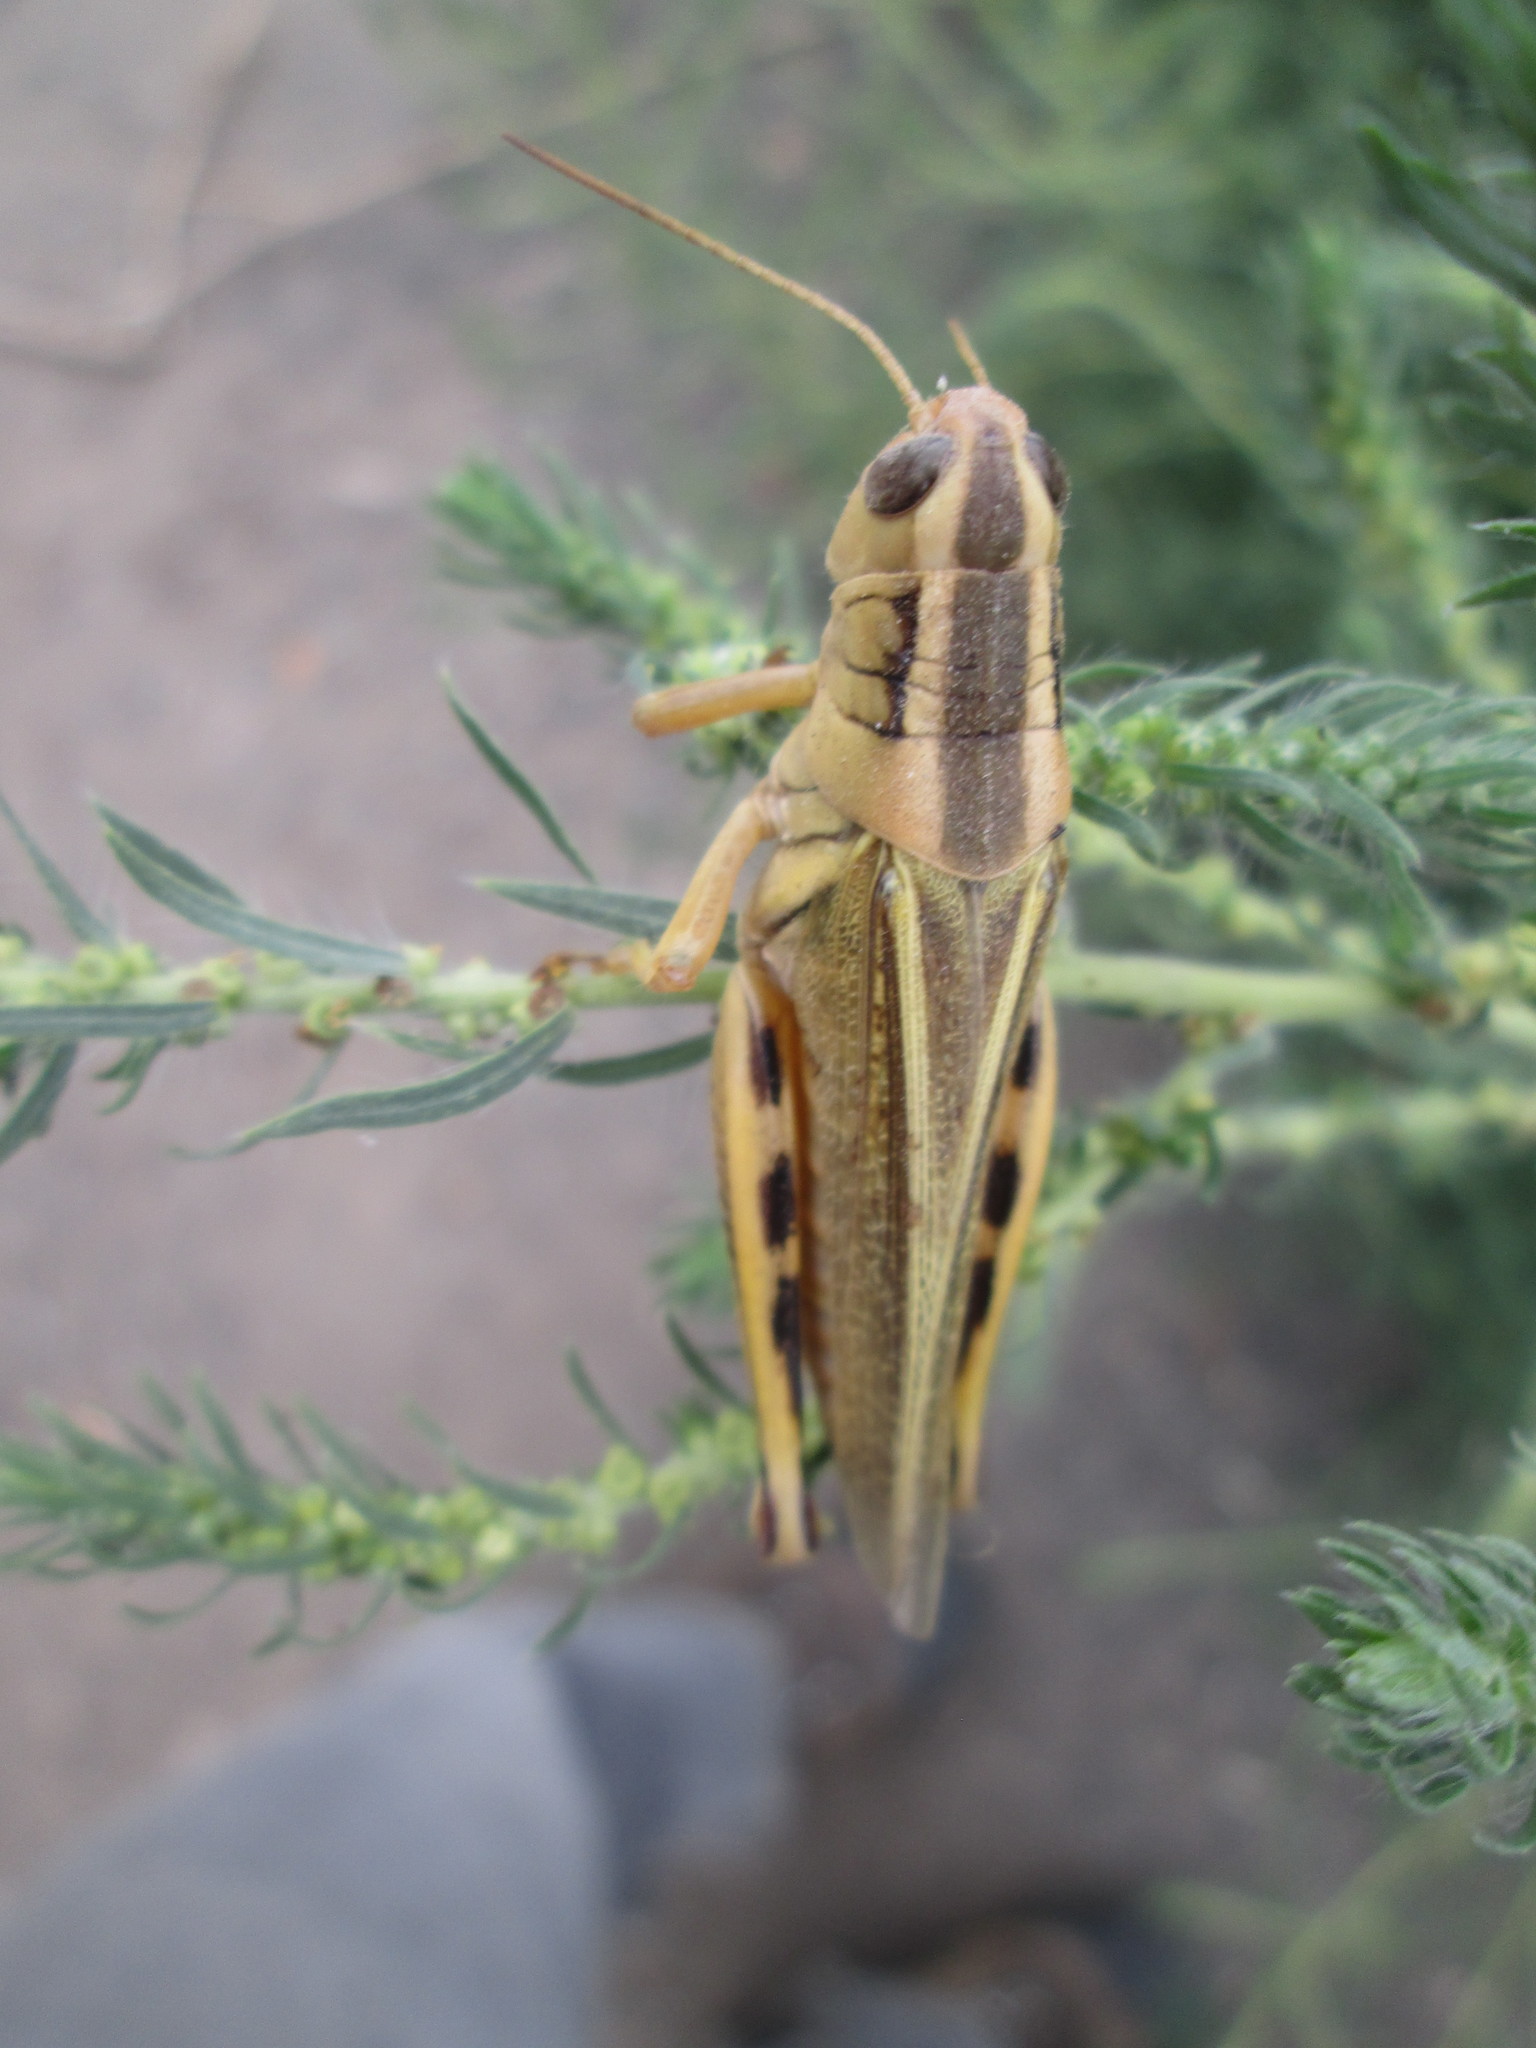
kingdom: Animalia
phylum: Arthropoda
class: Insecta
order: Orthoptera
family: Acrididae
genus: Melanoplus
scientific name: Melanoplus bivittatus
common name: Two-striped grasshopper
